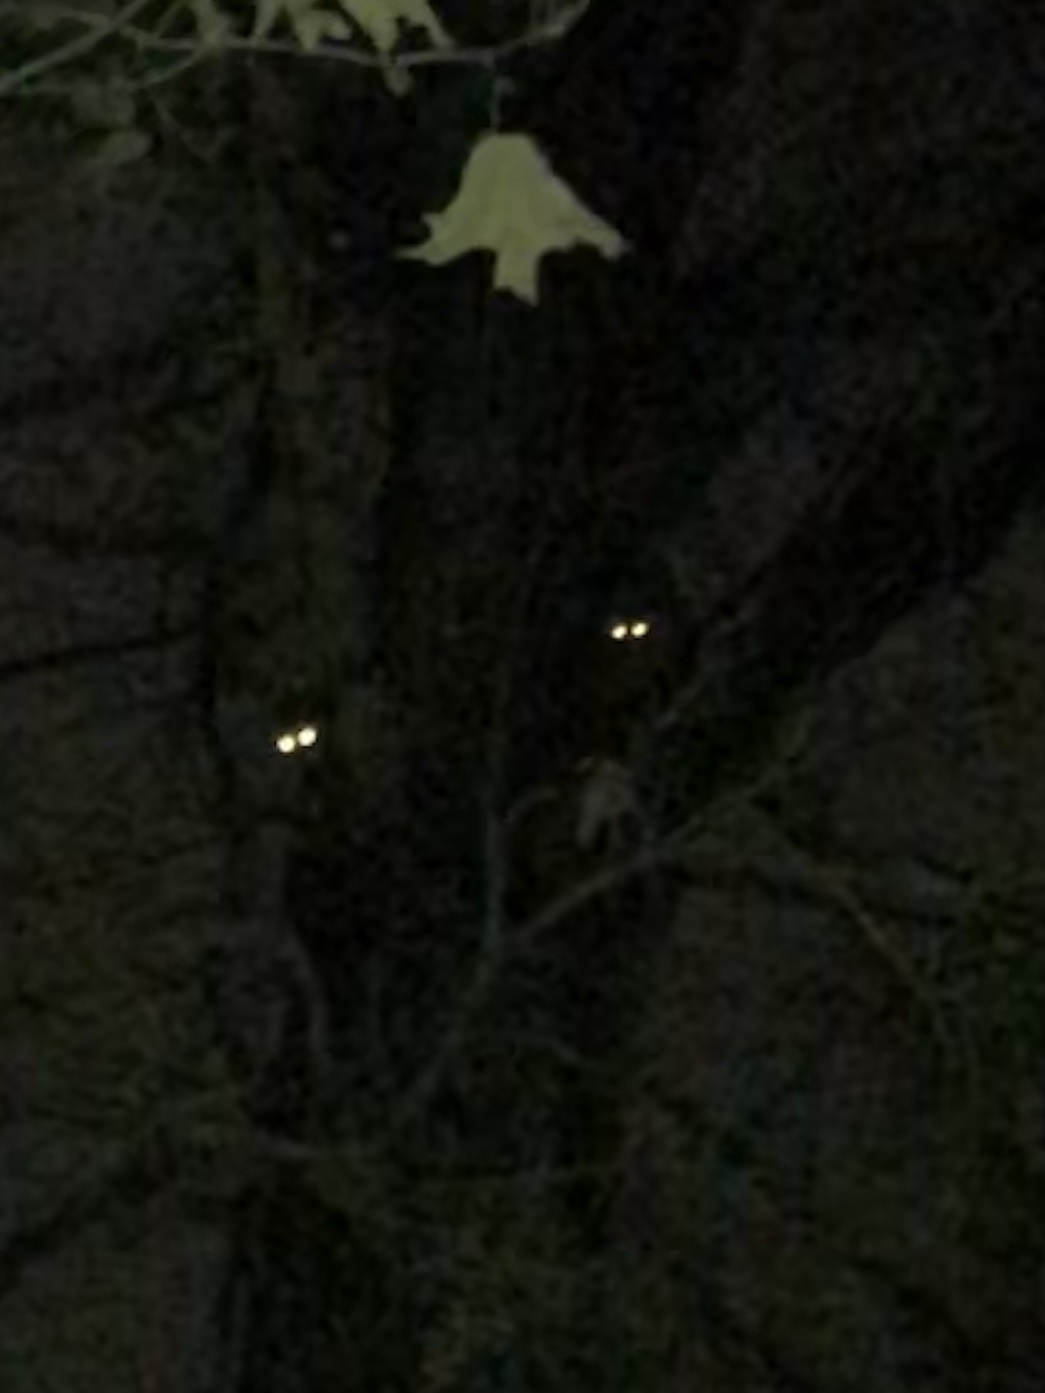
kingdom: Animalia
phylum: Chordata
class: Mammalia
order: Carnivora
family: Procyonidae
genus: Procyon
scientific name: Procyon lotor
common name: Raccoon
